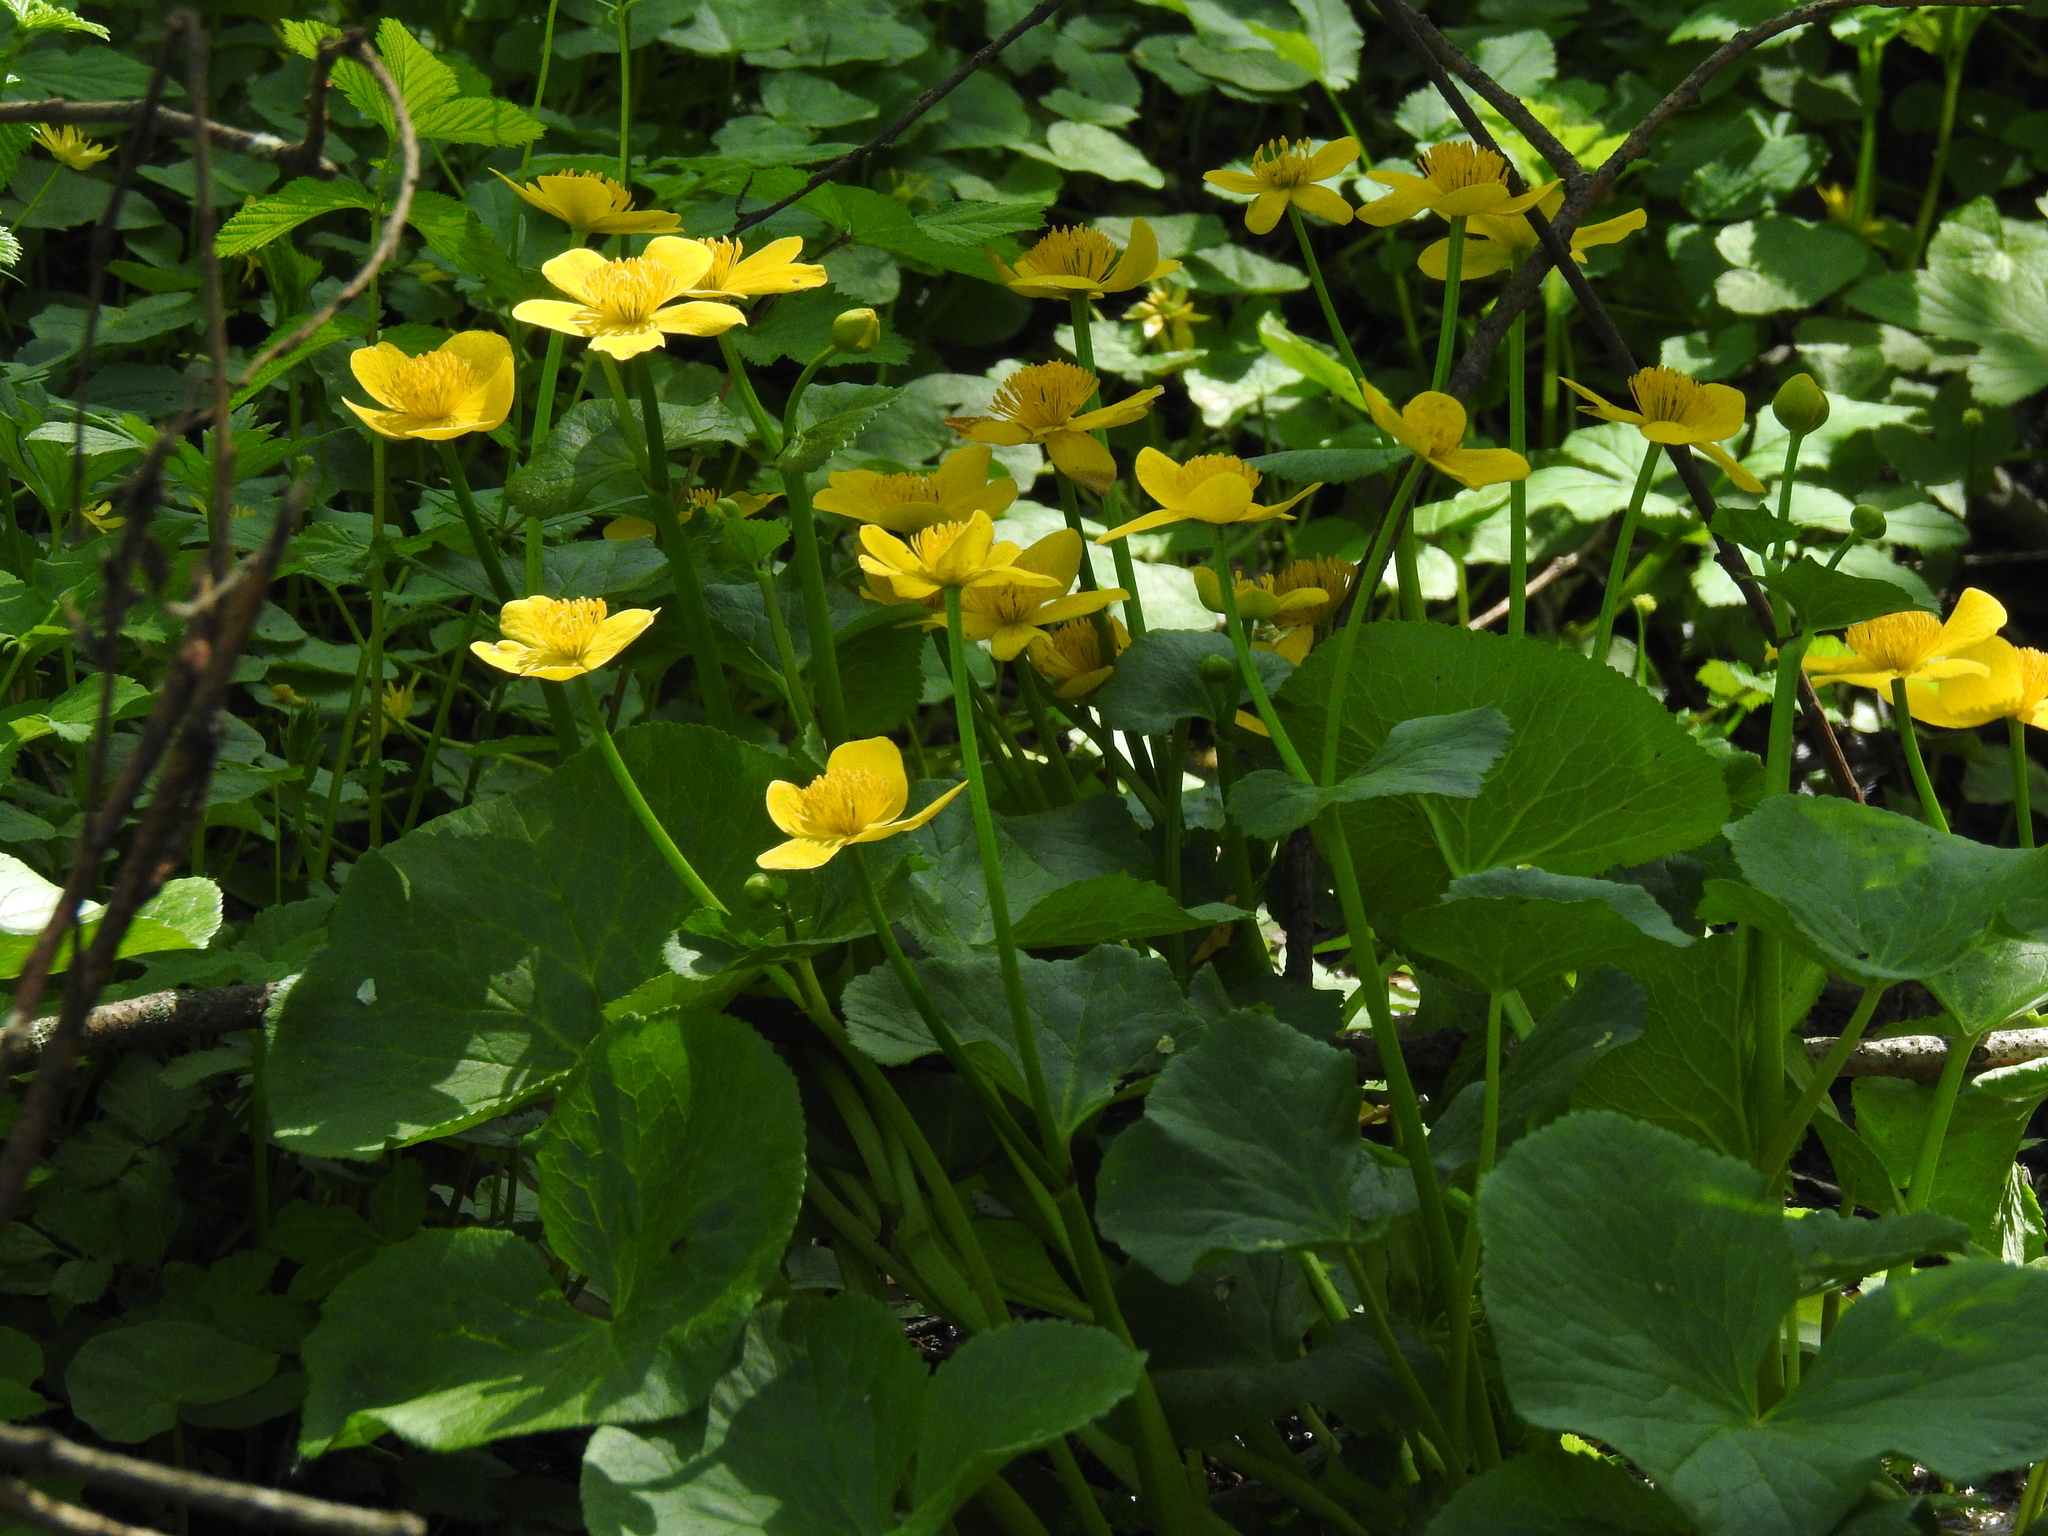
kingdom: Plantae
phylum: Tracheophyta
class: Magnoliopsida
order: Ranunculales
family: Ranunculaceae
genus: Caltha
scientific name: Caltha palustris
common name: Marsh marigold
